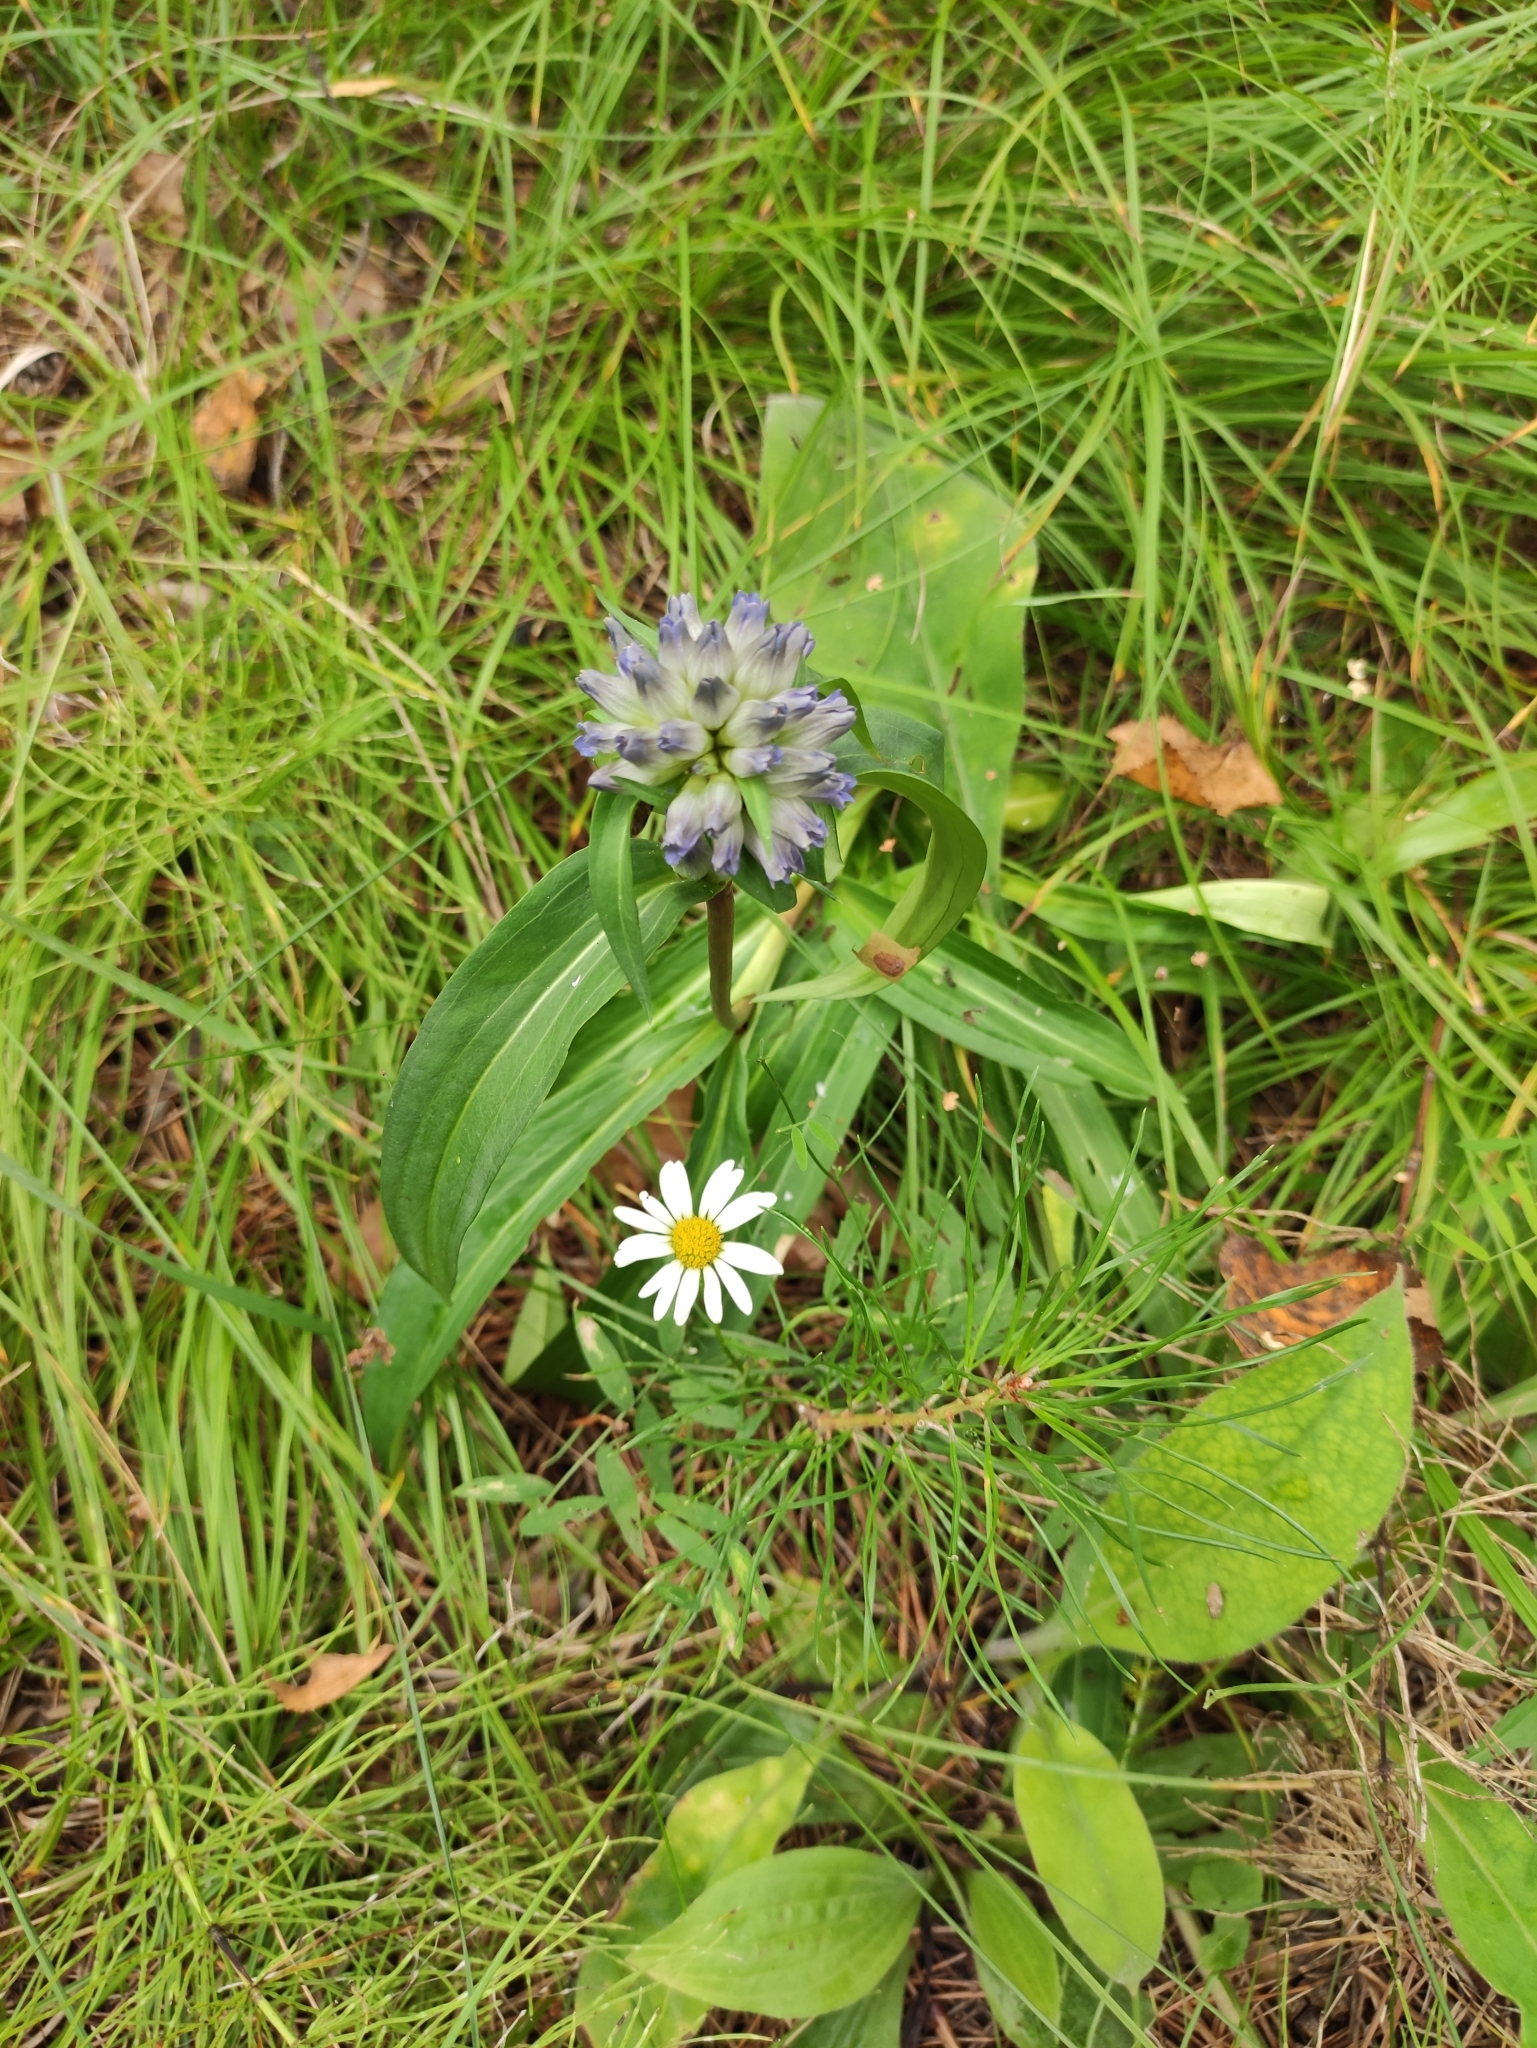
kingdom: Plantae
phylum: Tracheophyta
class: Magnoliopsida
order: Gentianales
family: Gentianaceae
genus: Gentiana
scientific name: Gentiana macrophylla
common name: Large-leaf gentian
